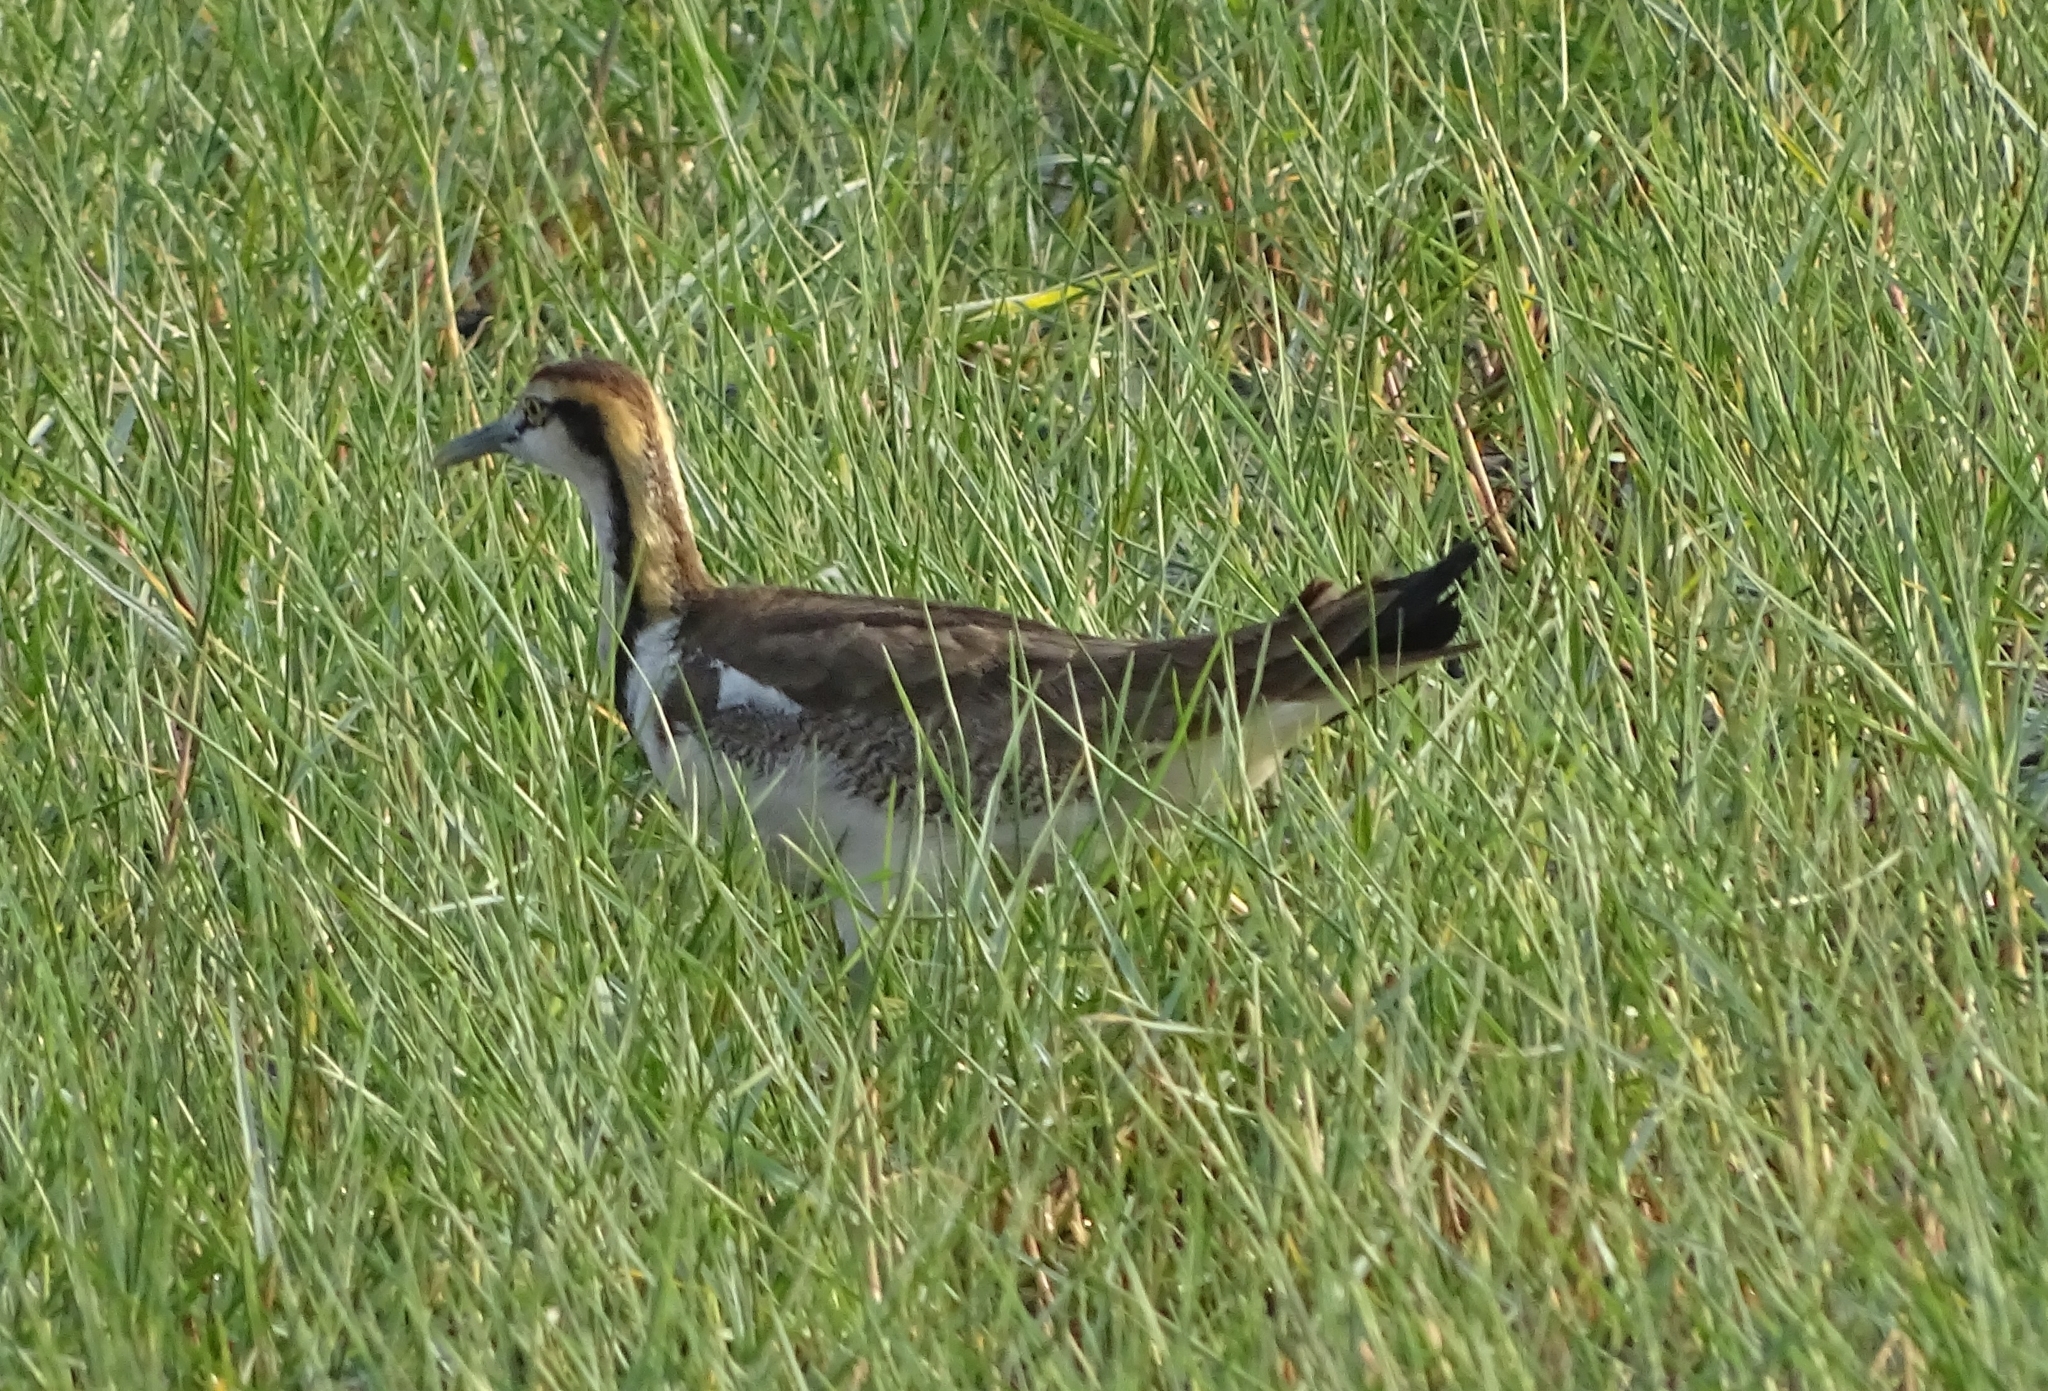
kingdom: Animalia
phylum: Chordata
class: Aves
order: Charadriiformes
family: Jacanidae
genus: Hydrophasianus
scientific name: Hydrophasianus chirurgus
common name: Pheasant-tailed jacana
